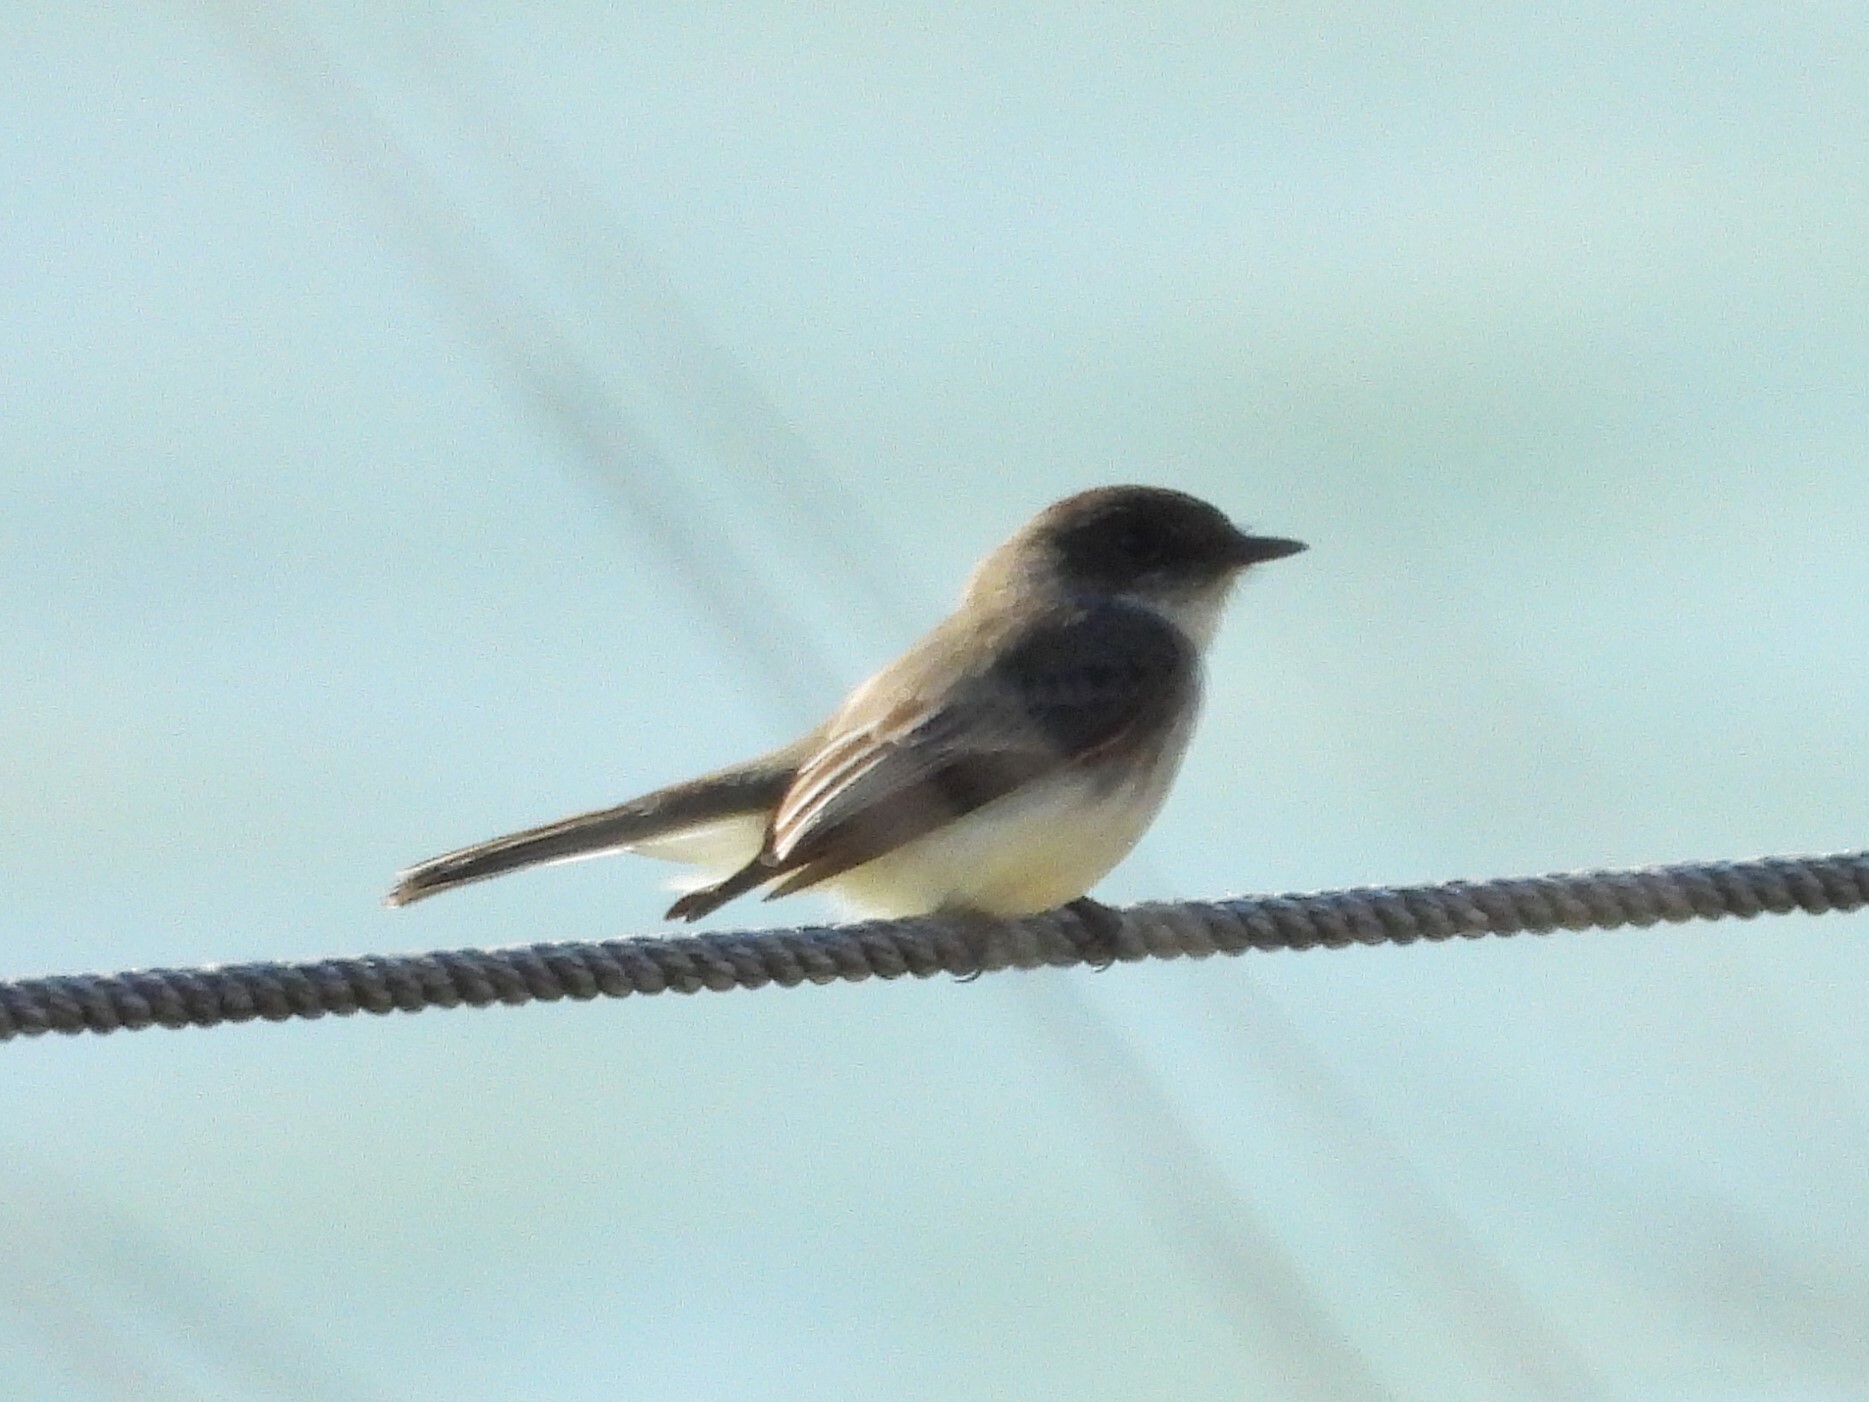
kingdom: Animalia
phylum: Chordata
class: Aves
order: Passeriformes
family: Tyrannidae
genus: Sayornis
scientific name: Sayornis phoebe
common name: Eastern phoebe
